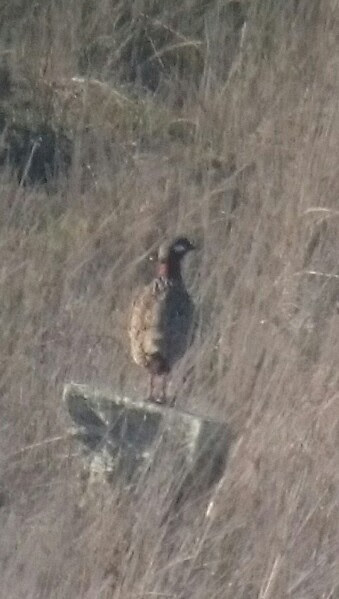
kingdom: Animalia
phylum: Chordata
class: Aves
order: Galliformes
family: Phasianidae
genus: Francolinus
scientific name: Francolinus francolinus
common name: Black francolin
